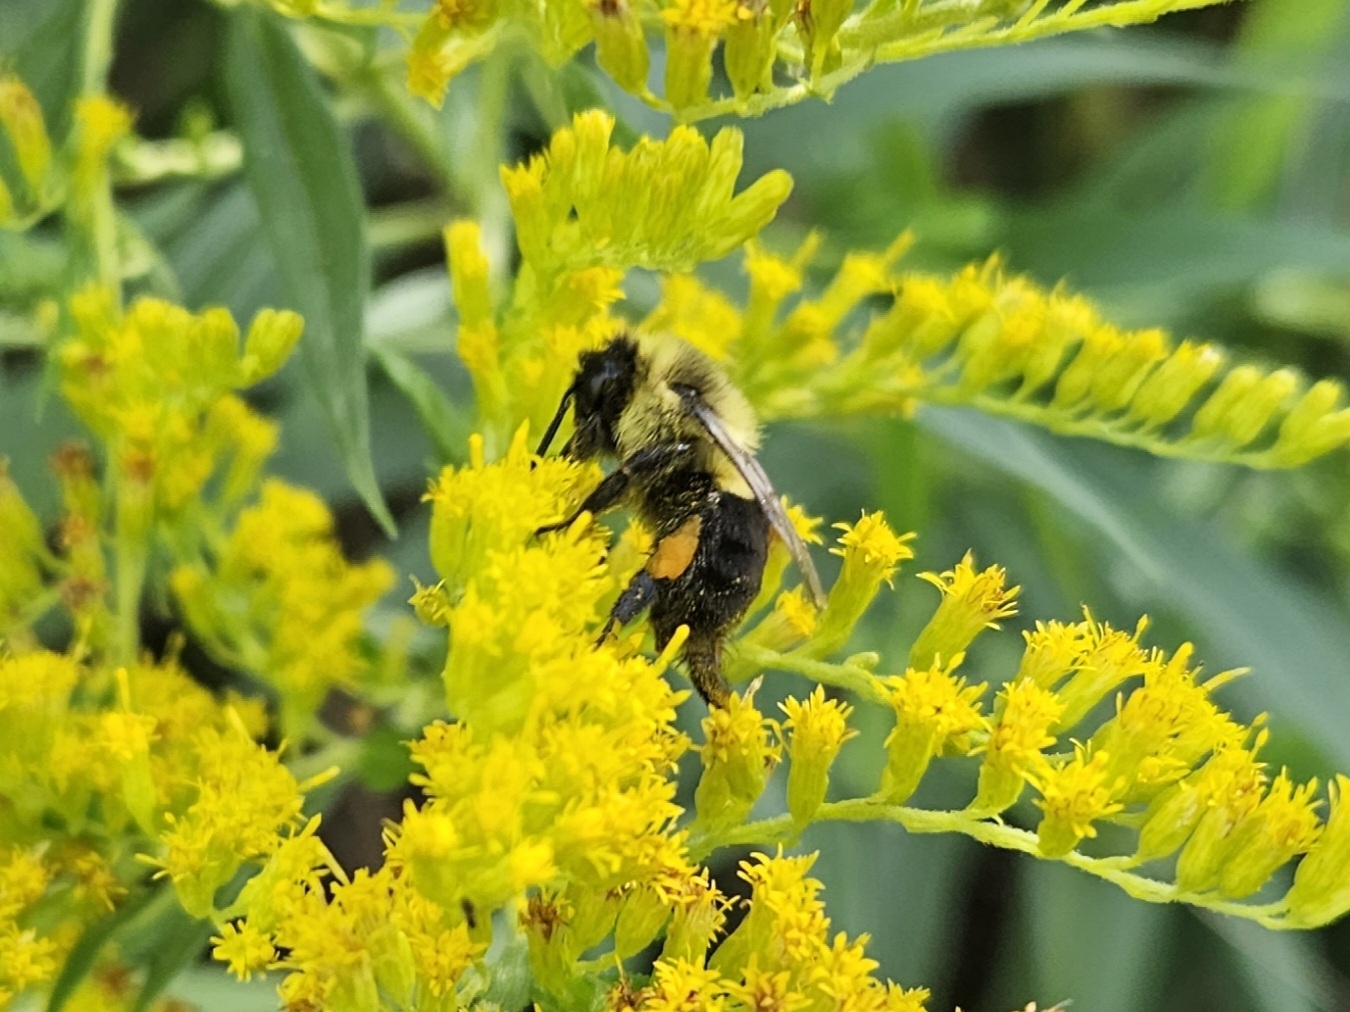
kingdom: Animalia
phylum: Arthropoda
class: Insecta
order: Hymenoptera
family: Apidae
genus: Bombus
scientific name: Bombus impatiens
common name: Common eastern bumble bee
